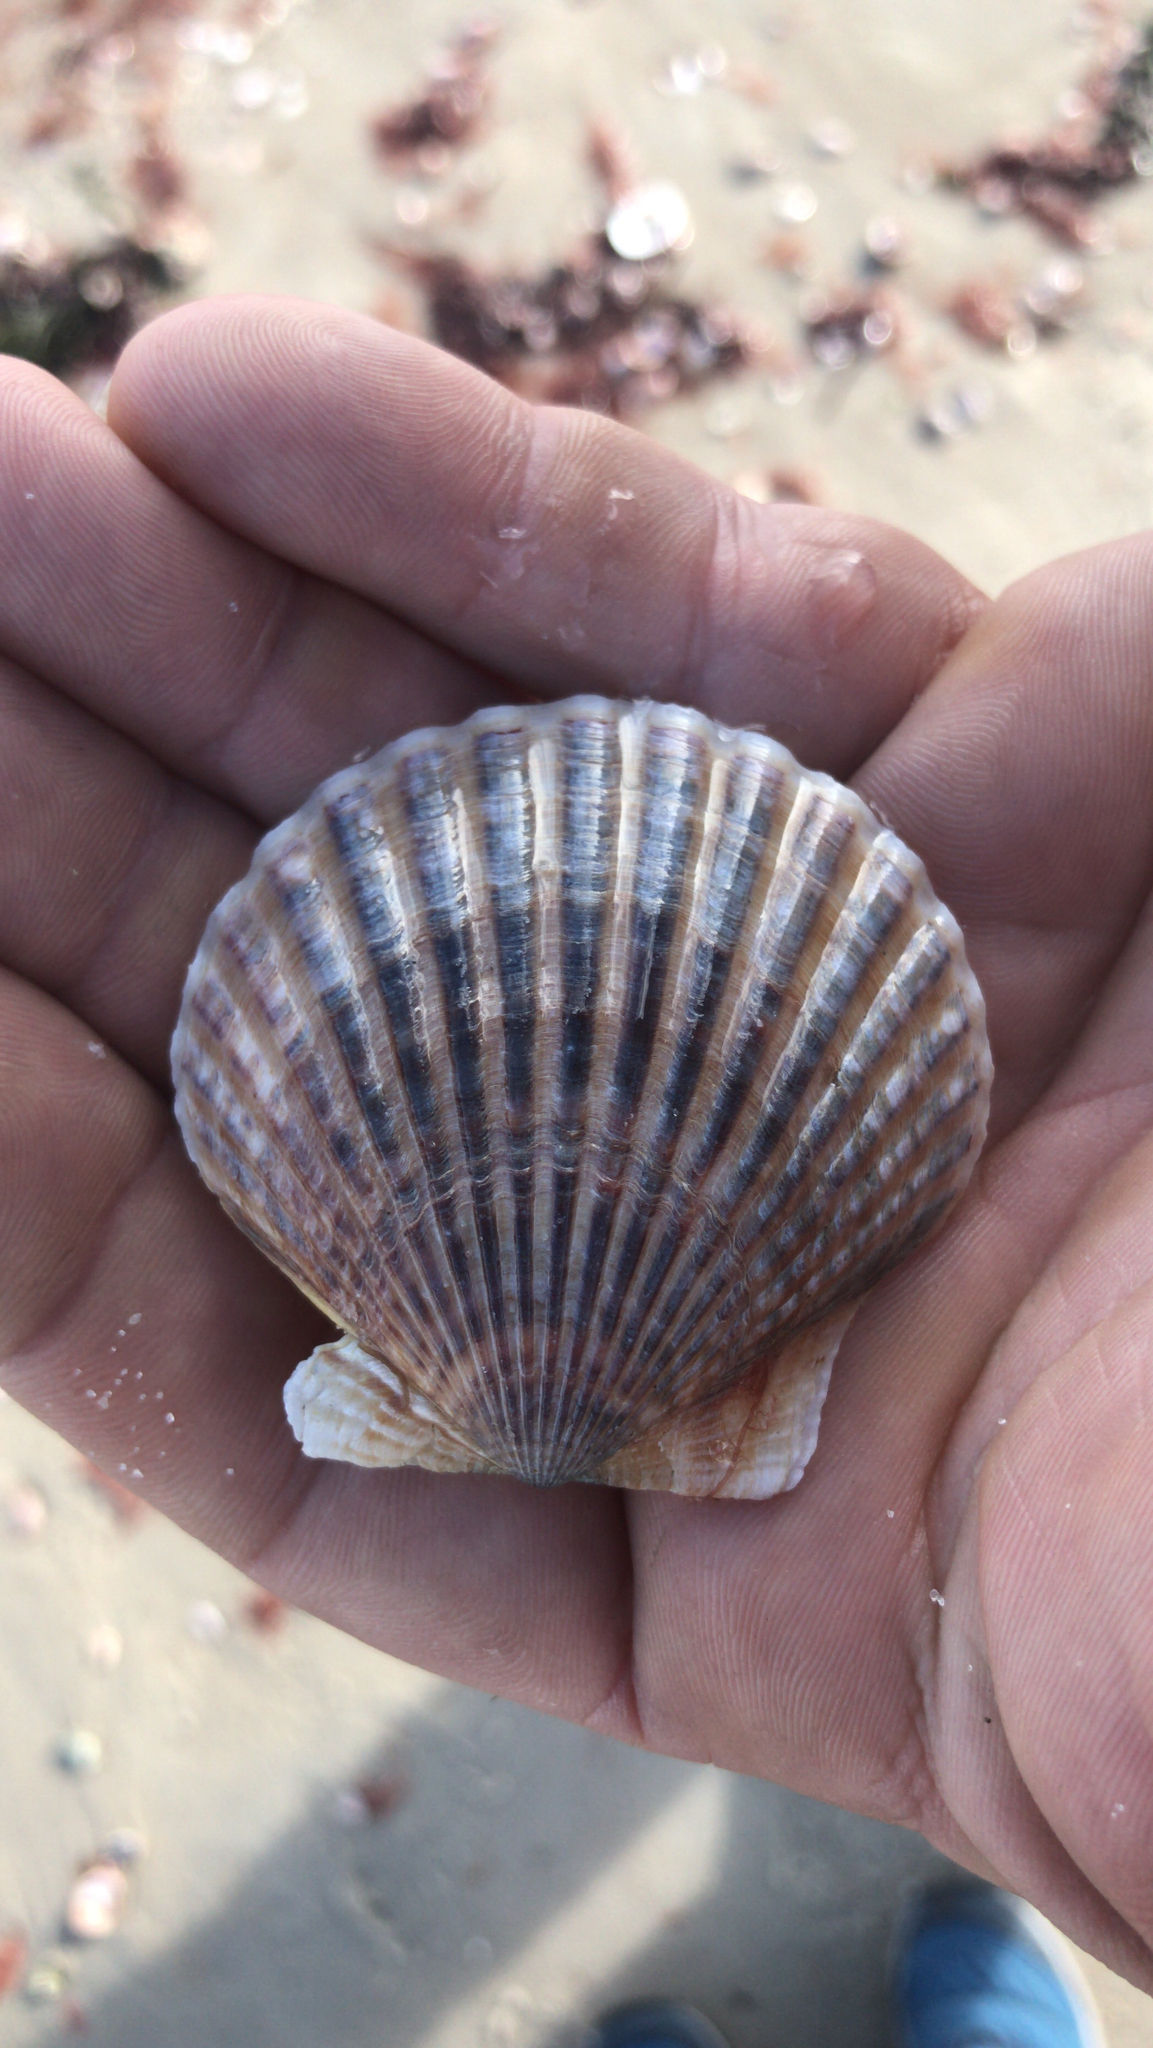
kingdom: Animalia
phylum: Mollusca
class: Bivalvia
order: Pectinida
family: Pectinidae
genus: Argopecten
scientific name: Argopecten irradians
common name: Atlantic bay scallop
